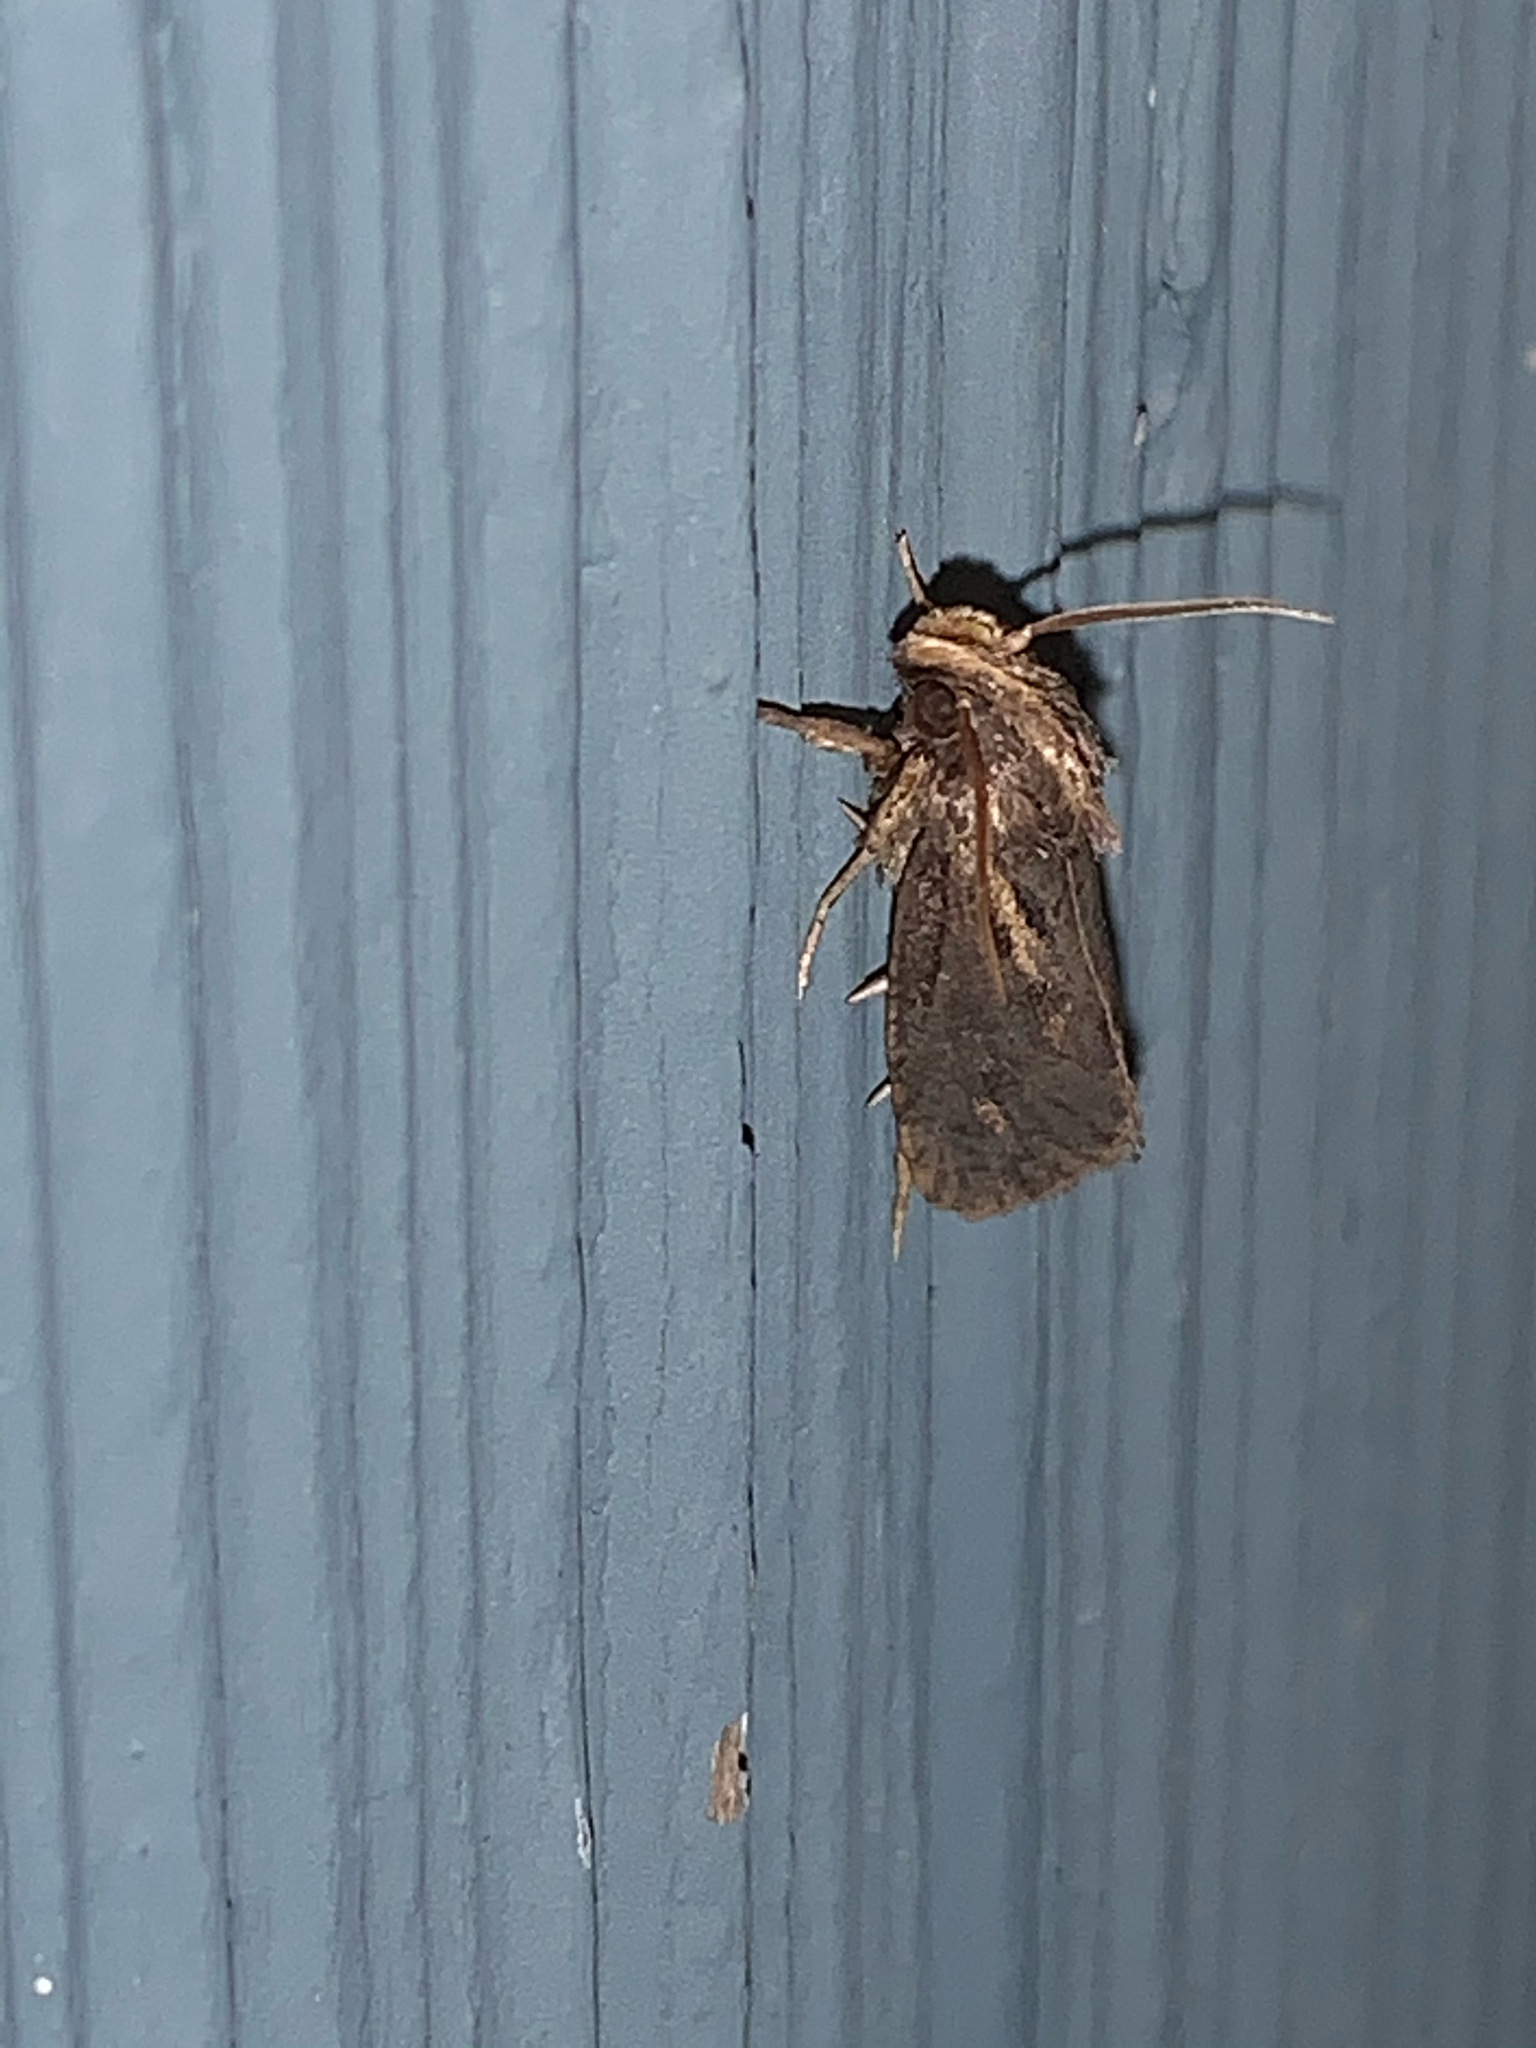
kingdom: Animalia
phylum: Arthropoda
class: Insecta
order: Lepidoptera
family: Tineidae
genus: Acrolophus
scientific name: Acrolophus popeanella
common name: Clemens' grass tubeworm moth
